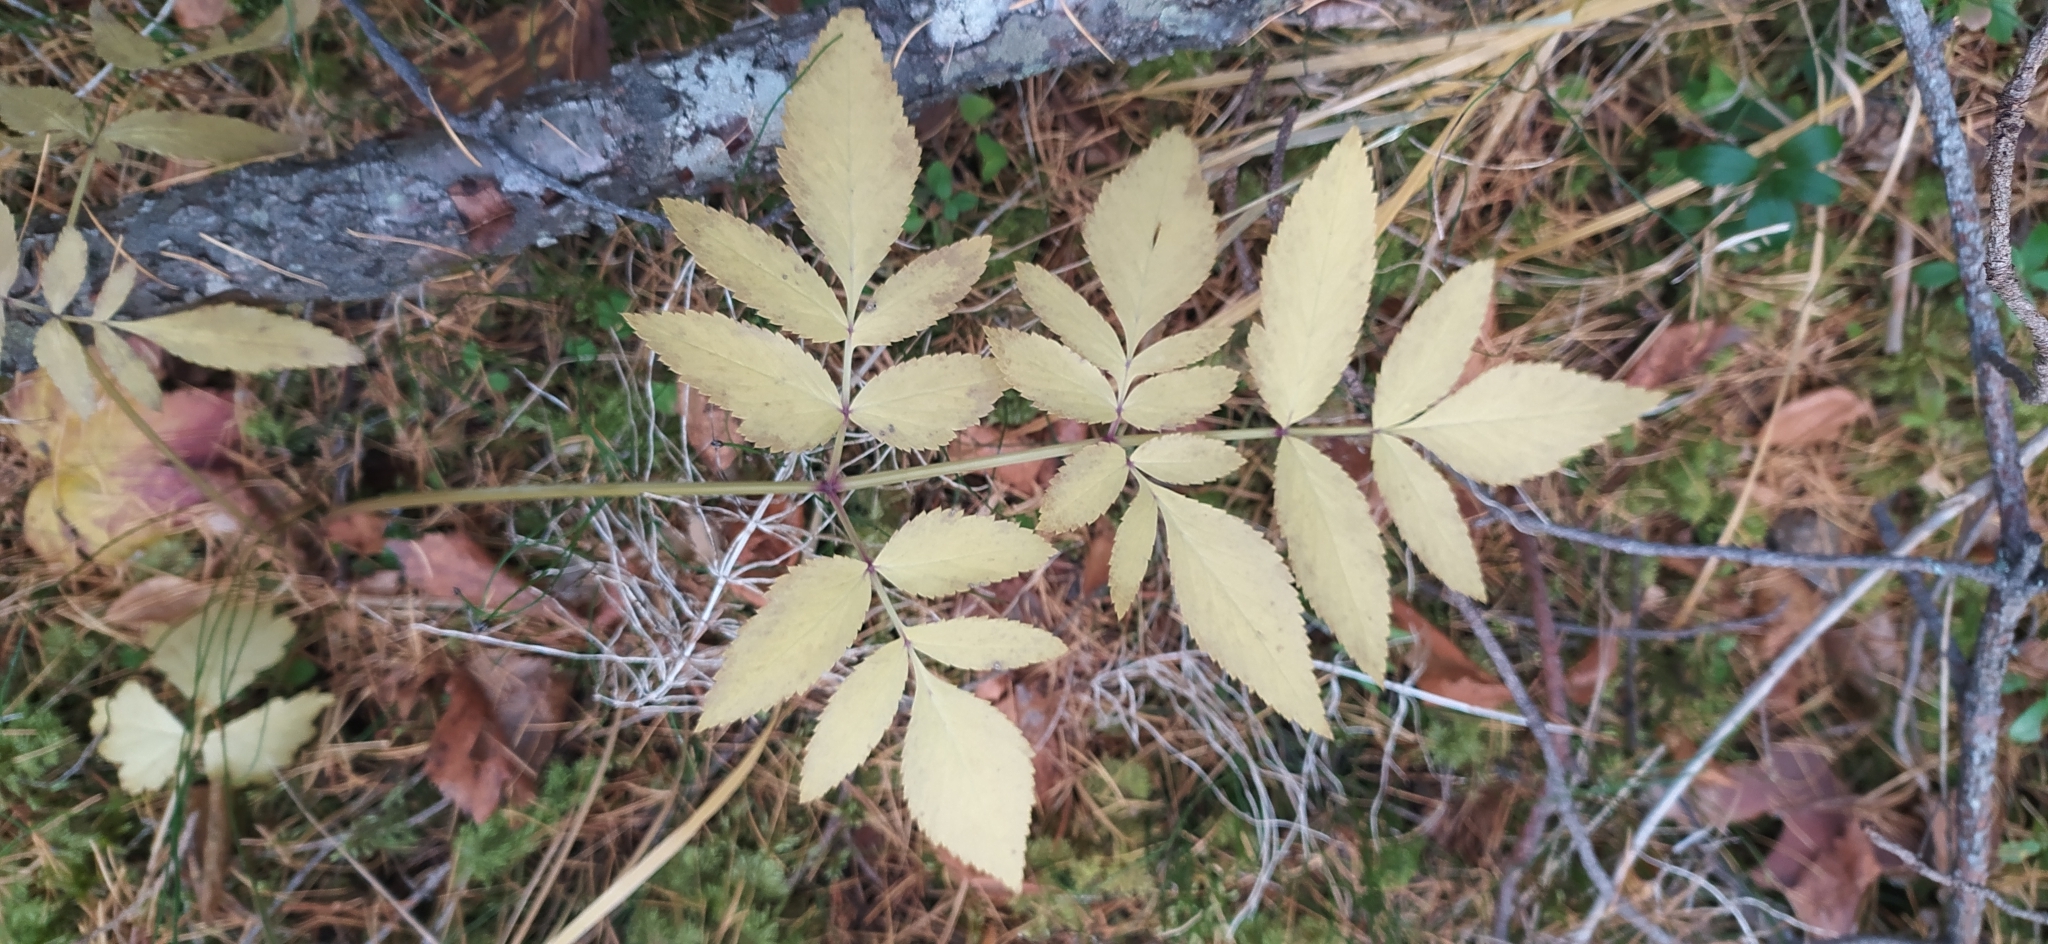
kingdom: Plantae
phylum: Tracheophyta
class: Magnoliopsida
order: Apiales
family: Apiaceae
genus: Angelica
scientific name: Angelica sylvestris
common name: Wild angelica
